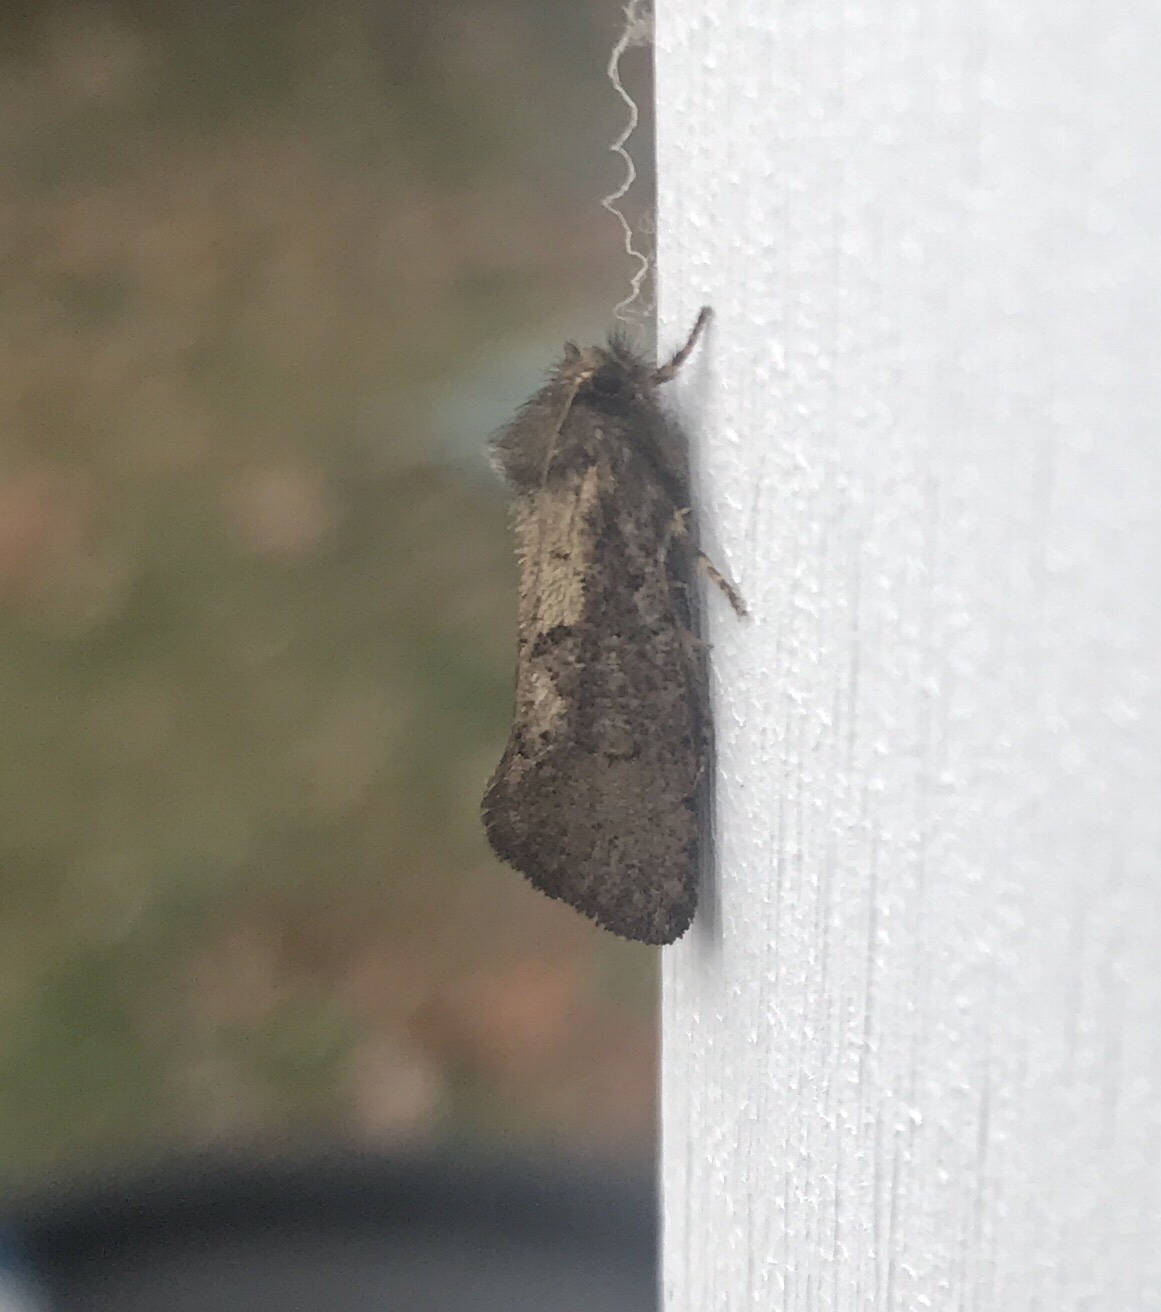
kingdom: Animalia
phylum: Arthropoda
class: Insecta
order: Lepidoptera
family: Tineidae
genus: Acrolophus
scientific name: Acrolophus mora
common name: Dark acrolophus
